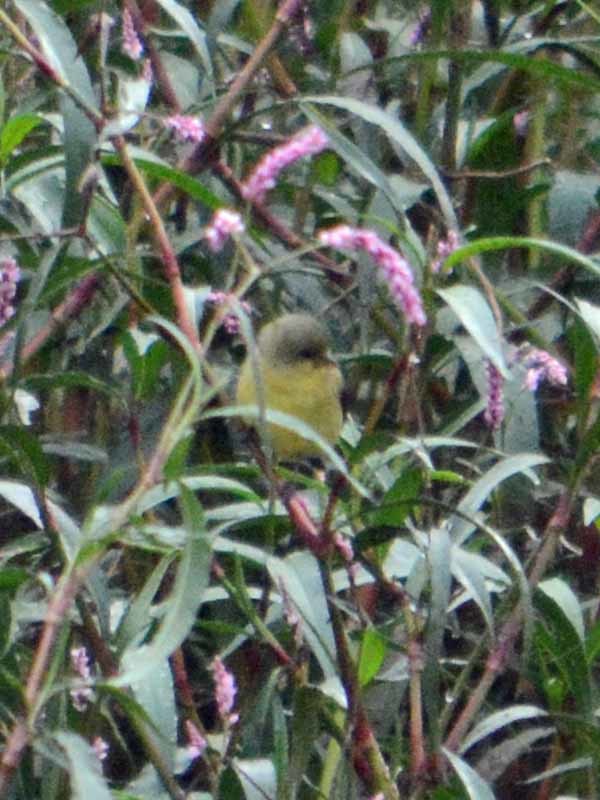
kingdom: Animalia
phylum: Chordata
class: Aves
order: Passeriformes
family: Fringillidae
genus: Spinus
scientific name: Spinus psaltria
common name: Lesser goldfinch
